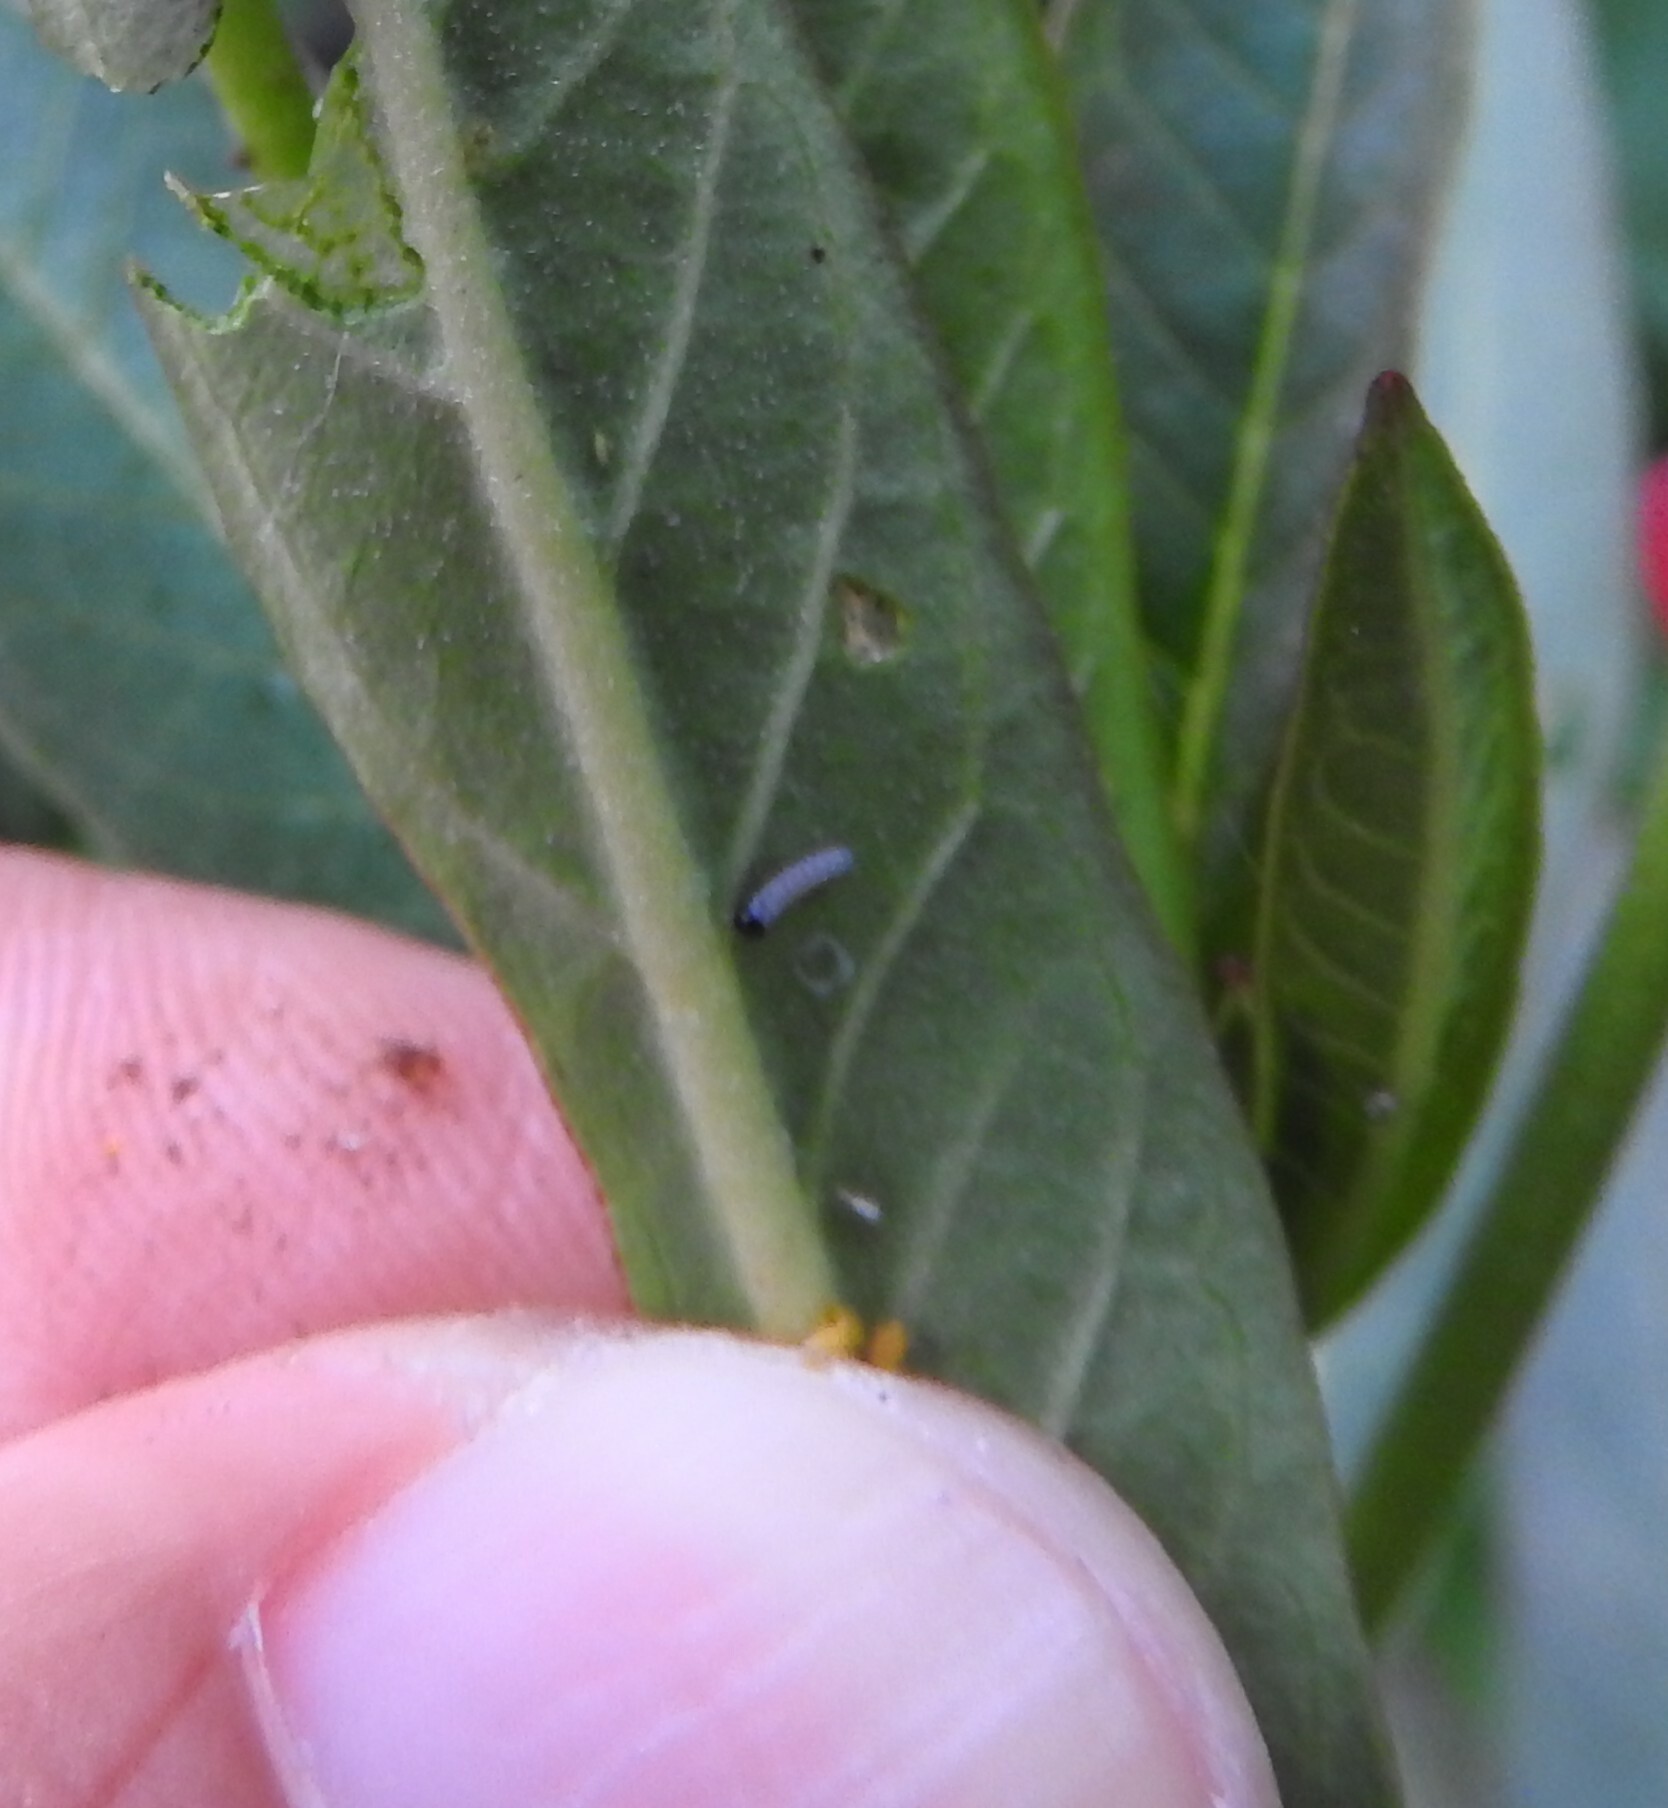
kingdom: Animalia
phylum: Arthropoda
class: Insecta
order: Lepidoptera
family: Nymphalidae
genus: Danaus
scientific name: Danaus plexippus
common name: Monarch
